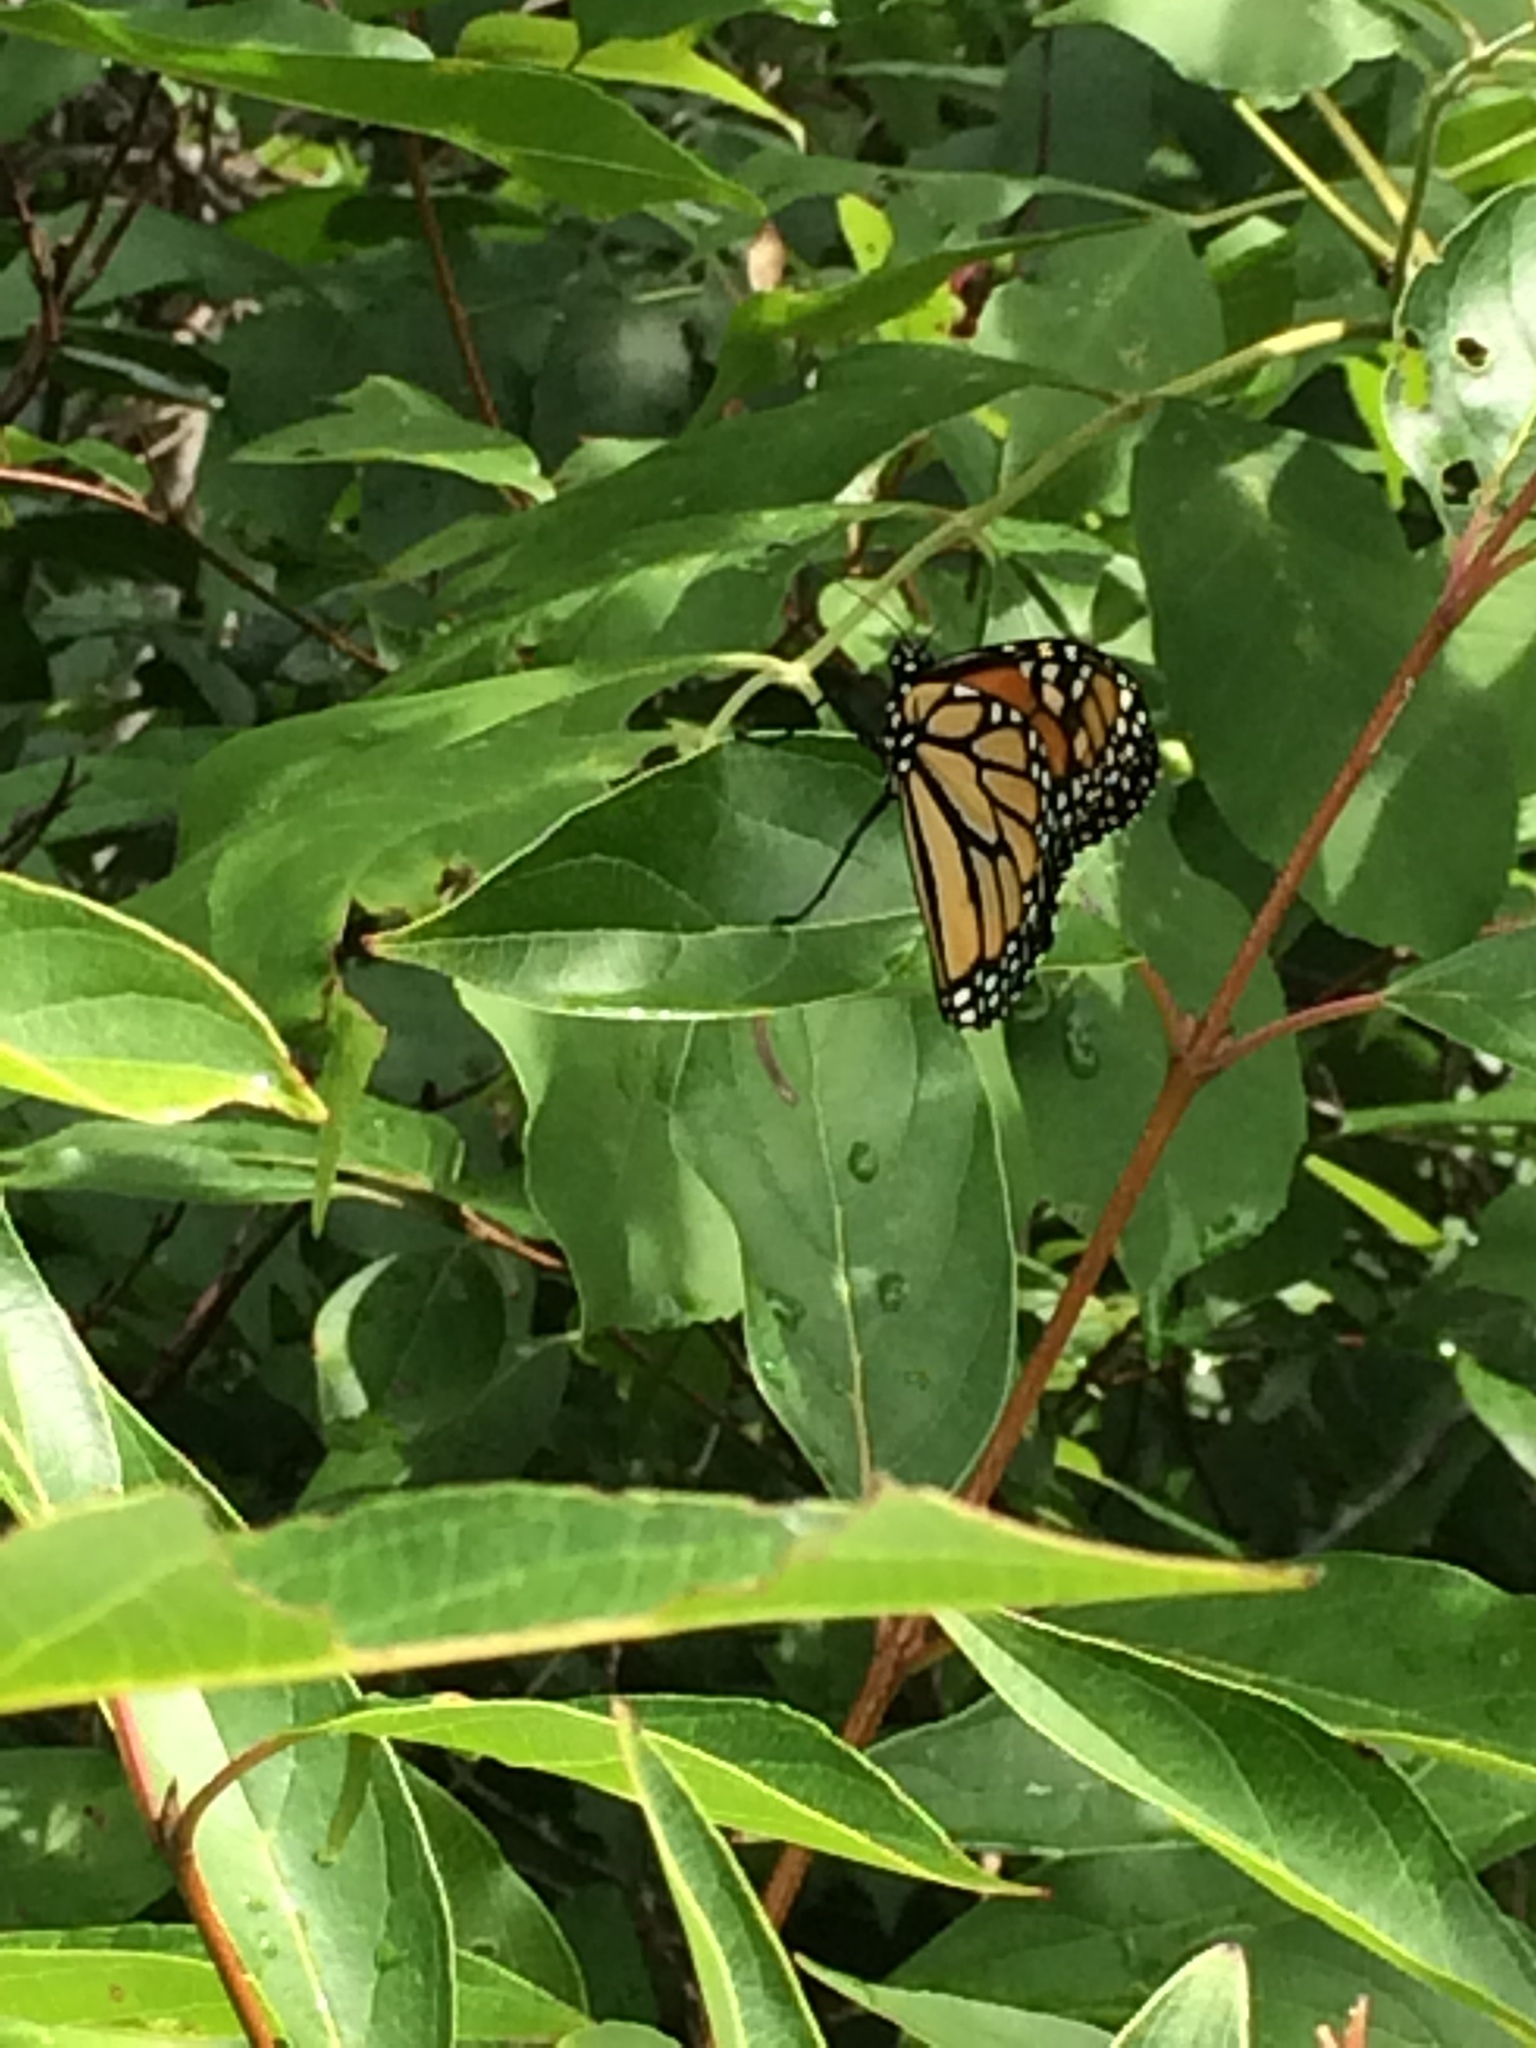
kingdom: Animalia
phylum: Arthropoda
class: Insecta
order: Lepidoptera
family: Nymphalidae
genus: Danaus
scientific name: Danaus plexippus
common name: Monarch
